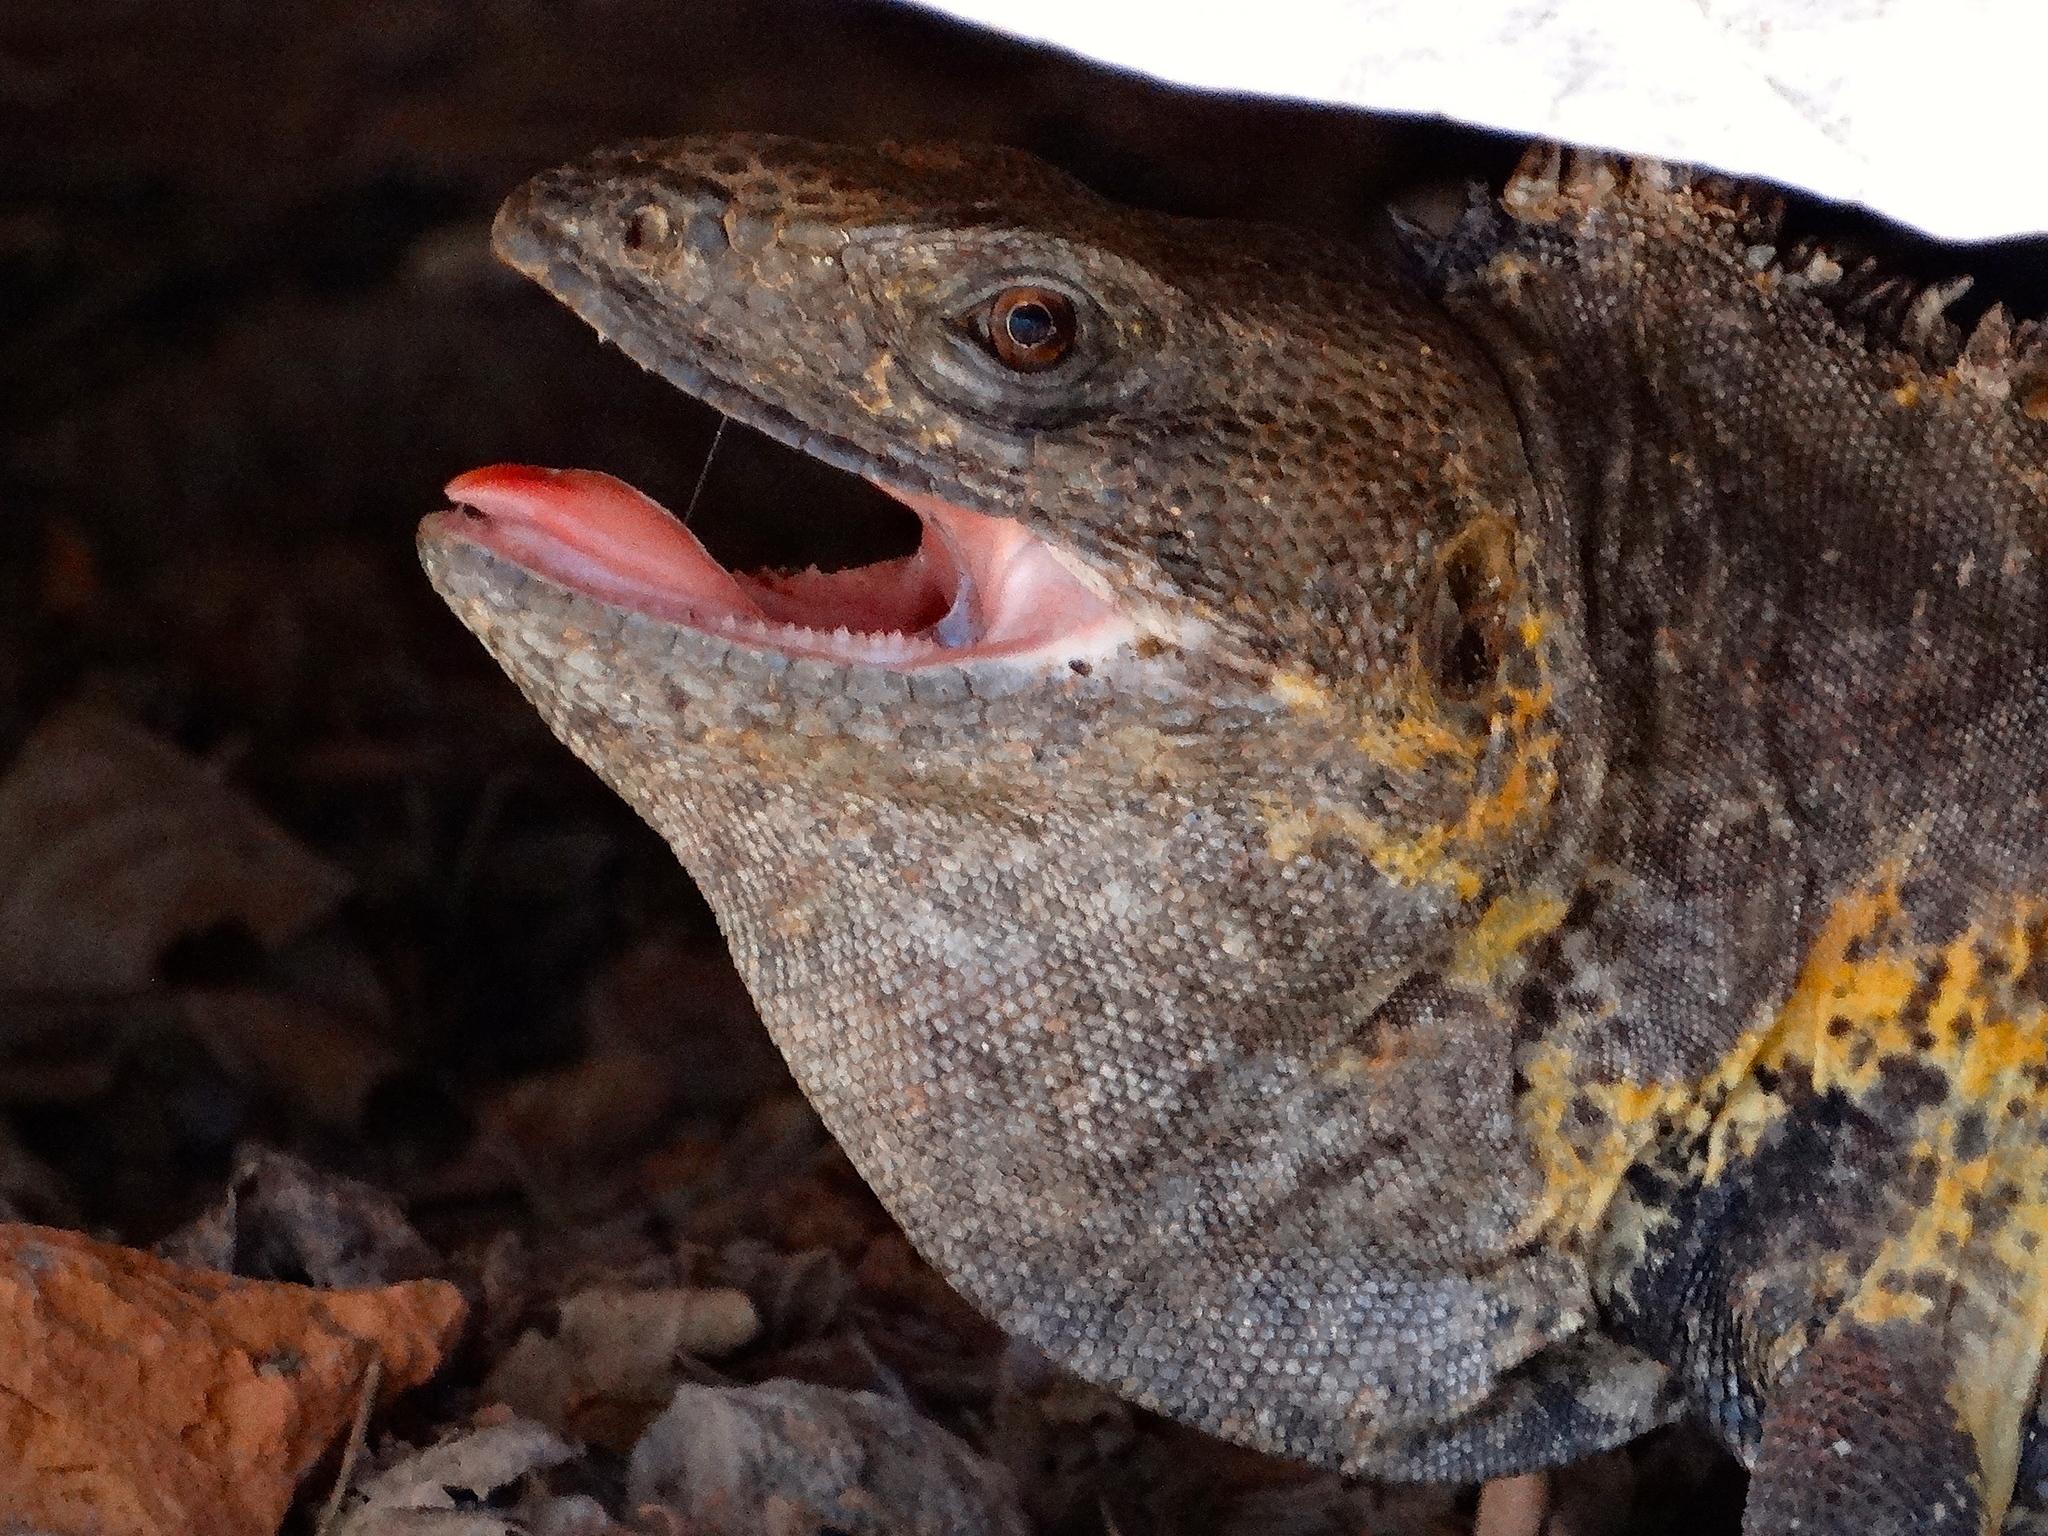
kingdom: Animalia
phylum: Chordata
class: Squamata
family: Iguanidae
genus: Ctenosaura
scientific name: Ctenosaura pectinata
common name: Guerreran spiny-tailed iguana
